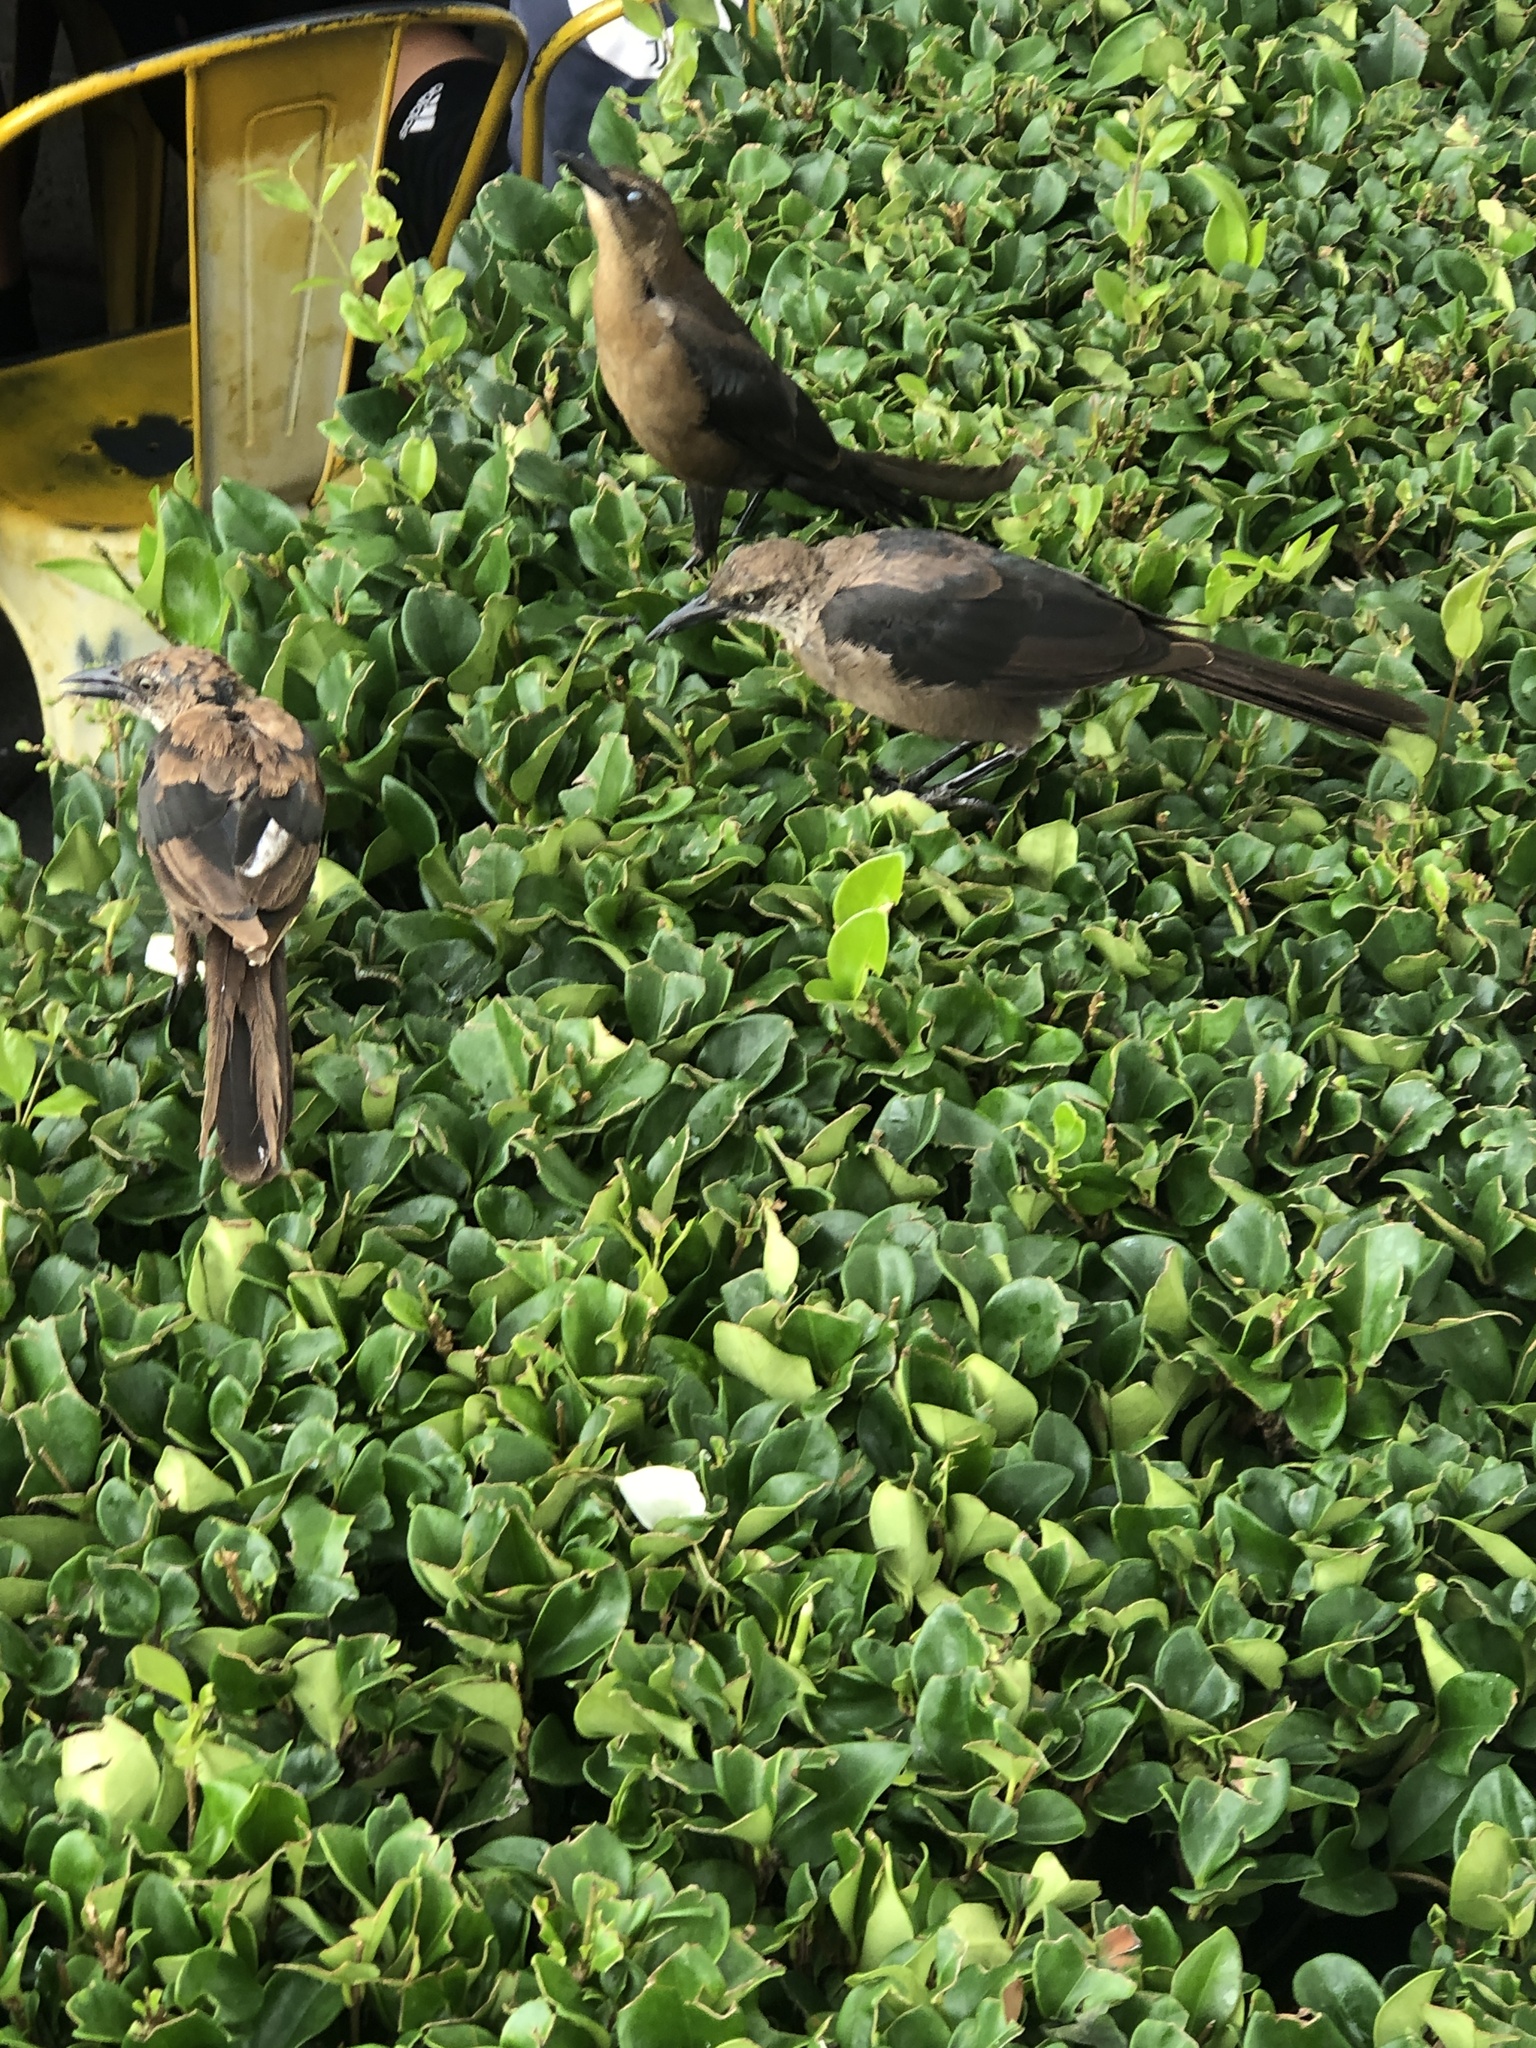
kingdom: Animalia
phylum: Chordata
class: Aves
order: Passeriformes
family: Icteridae
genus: Quiscalus
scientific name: Quiscalus mexicanus
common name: Great-tailed grackle
